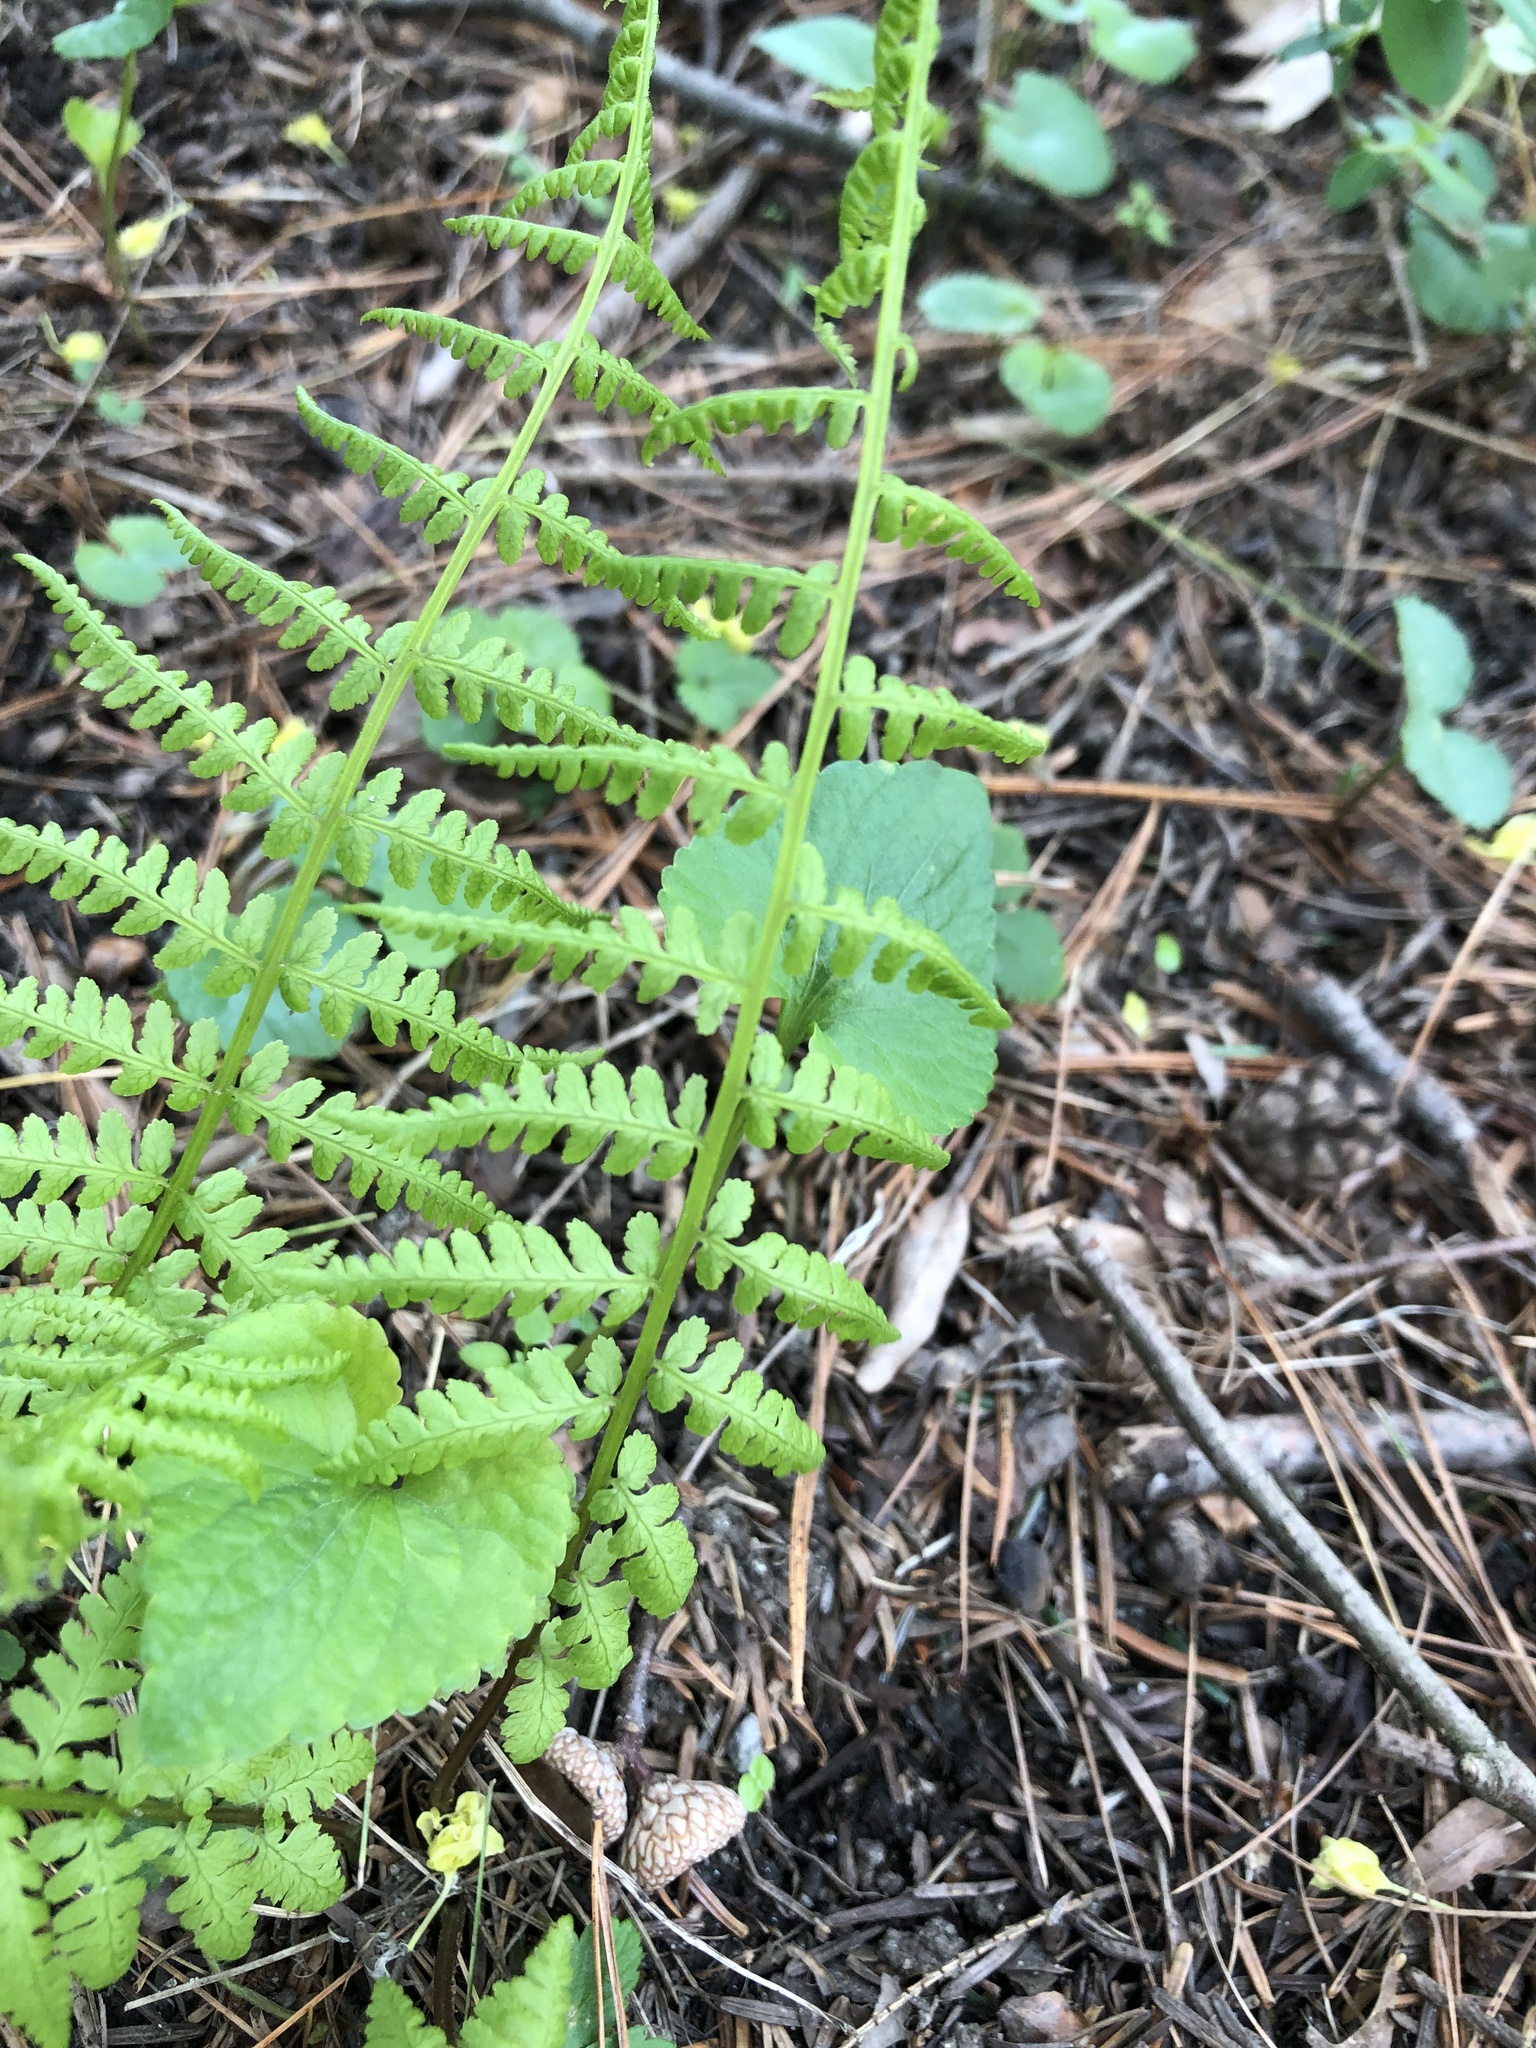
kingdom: Plantae
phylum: Tracheophyta
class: Polypodiopsida
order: Polypodiales
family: Athyriaceae
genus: Athyrium
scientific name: Athyrium angustum
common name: Northern lady fern
